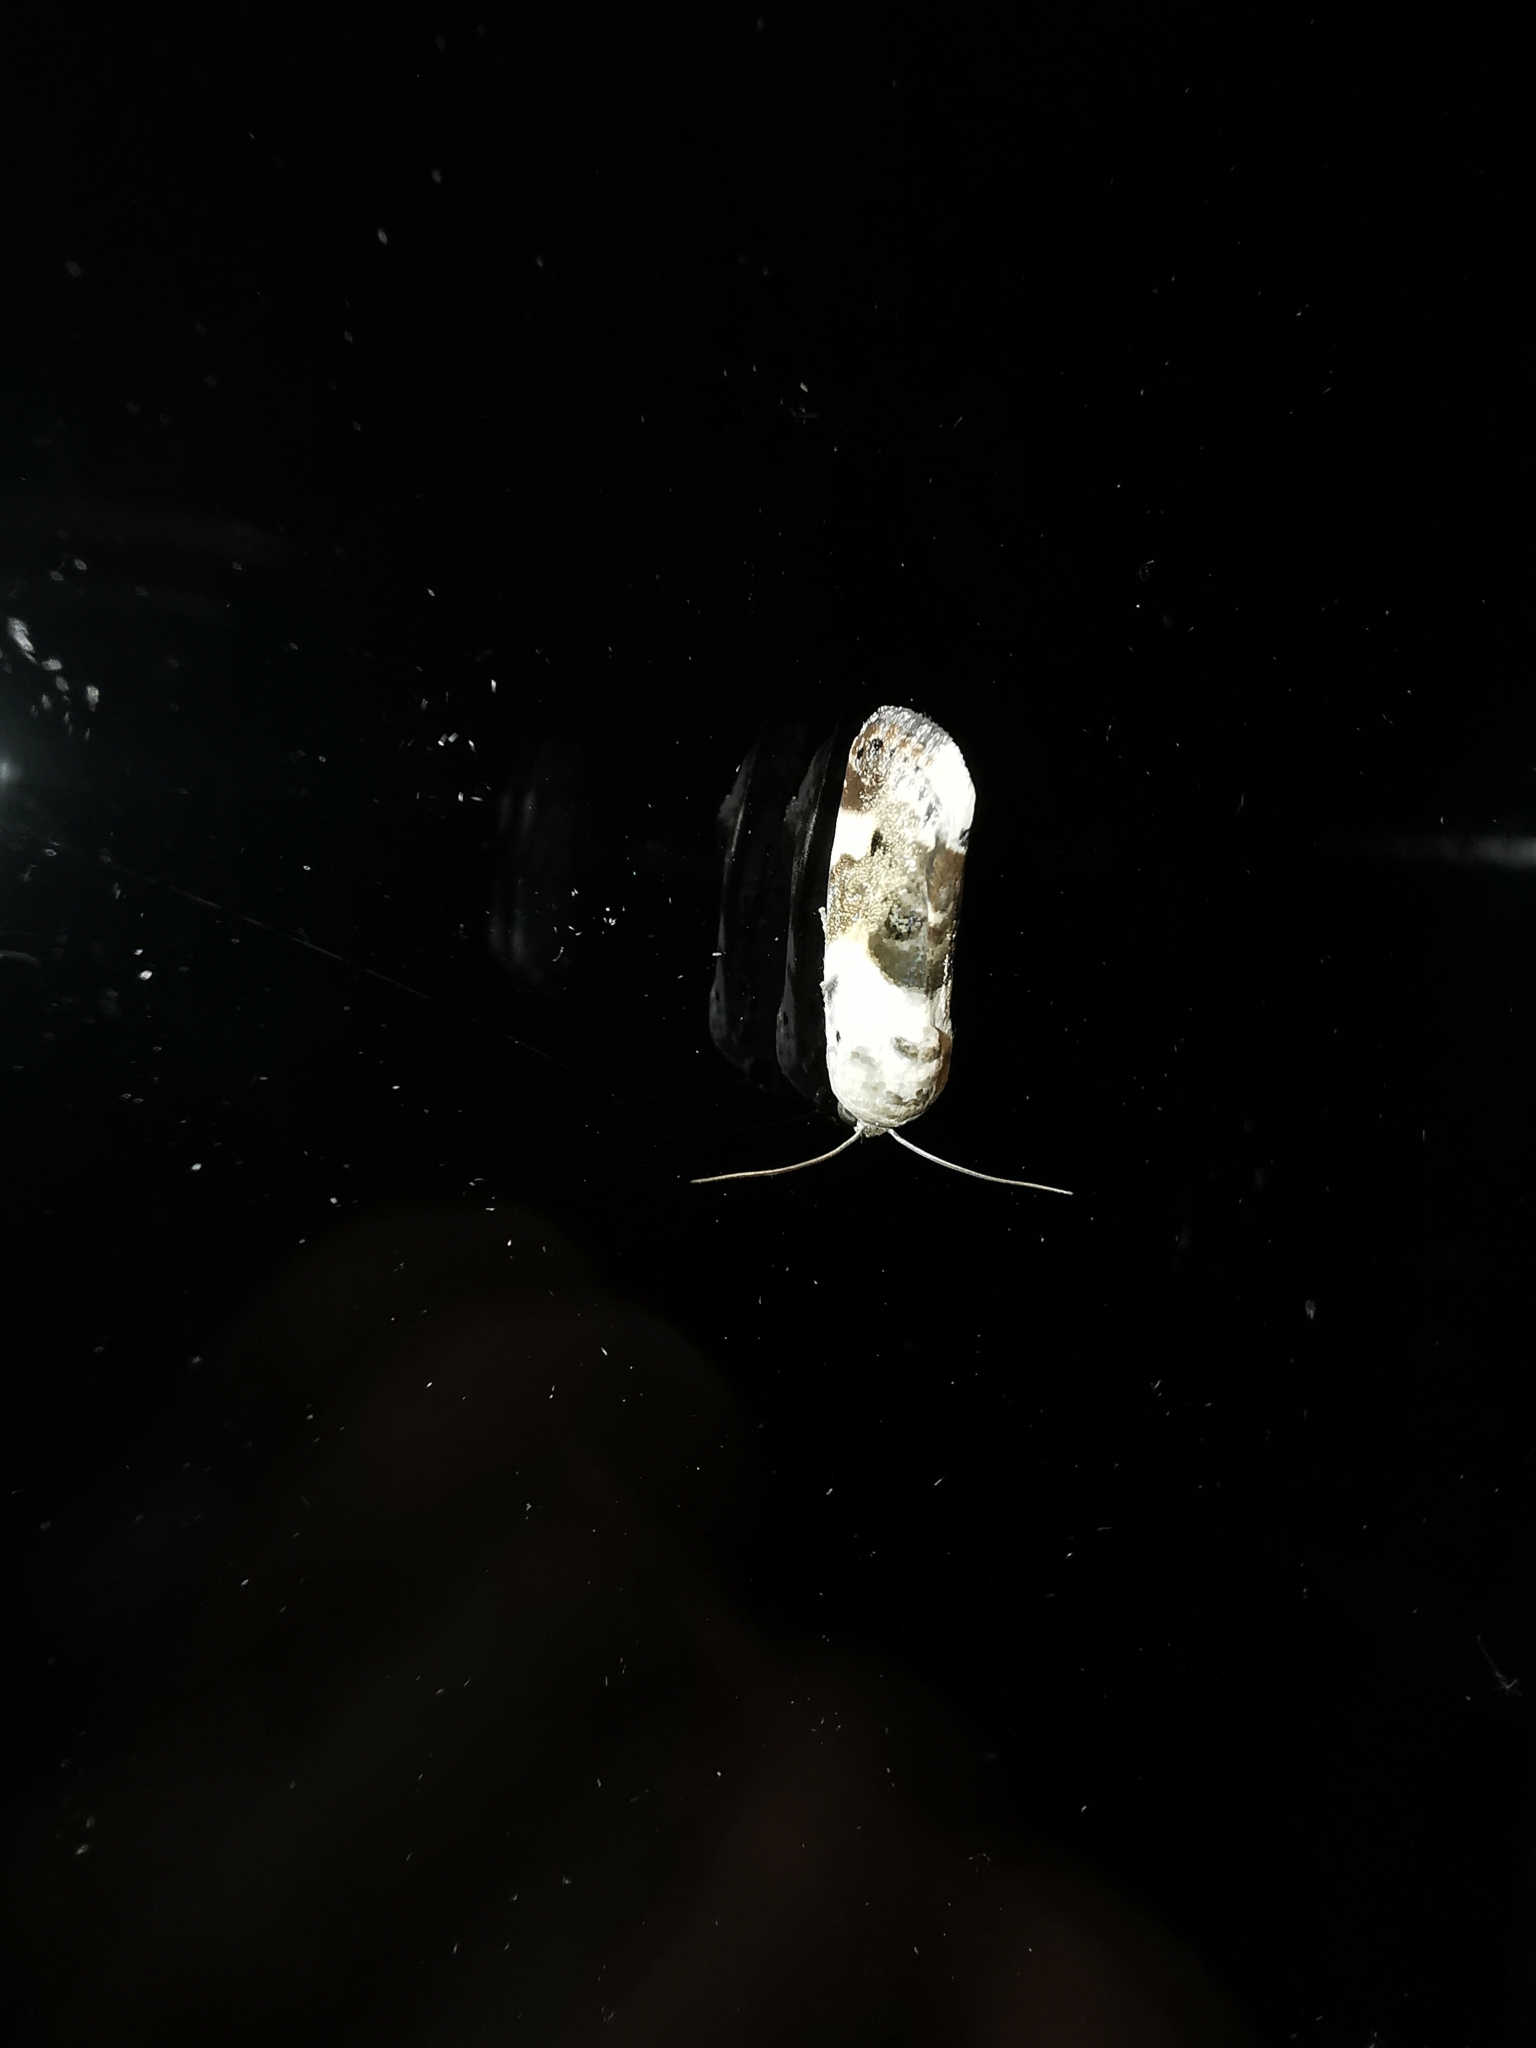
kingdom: Animalia
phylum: Arthropoda
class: Insecta
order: Lepidoptera
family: Noctuidae
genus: Acontia
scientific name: Acontia lucida
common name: Pale shoulder
